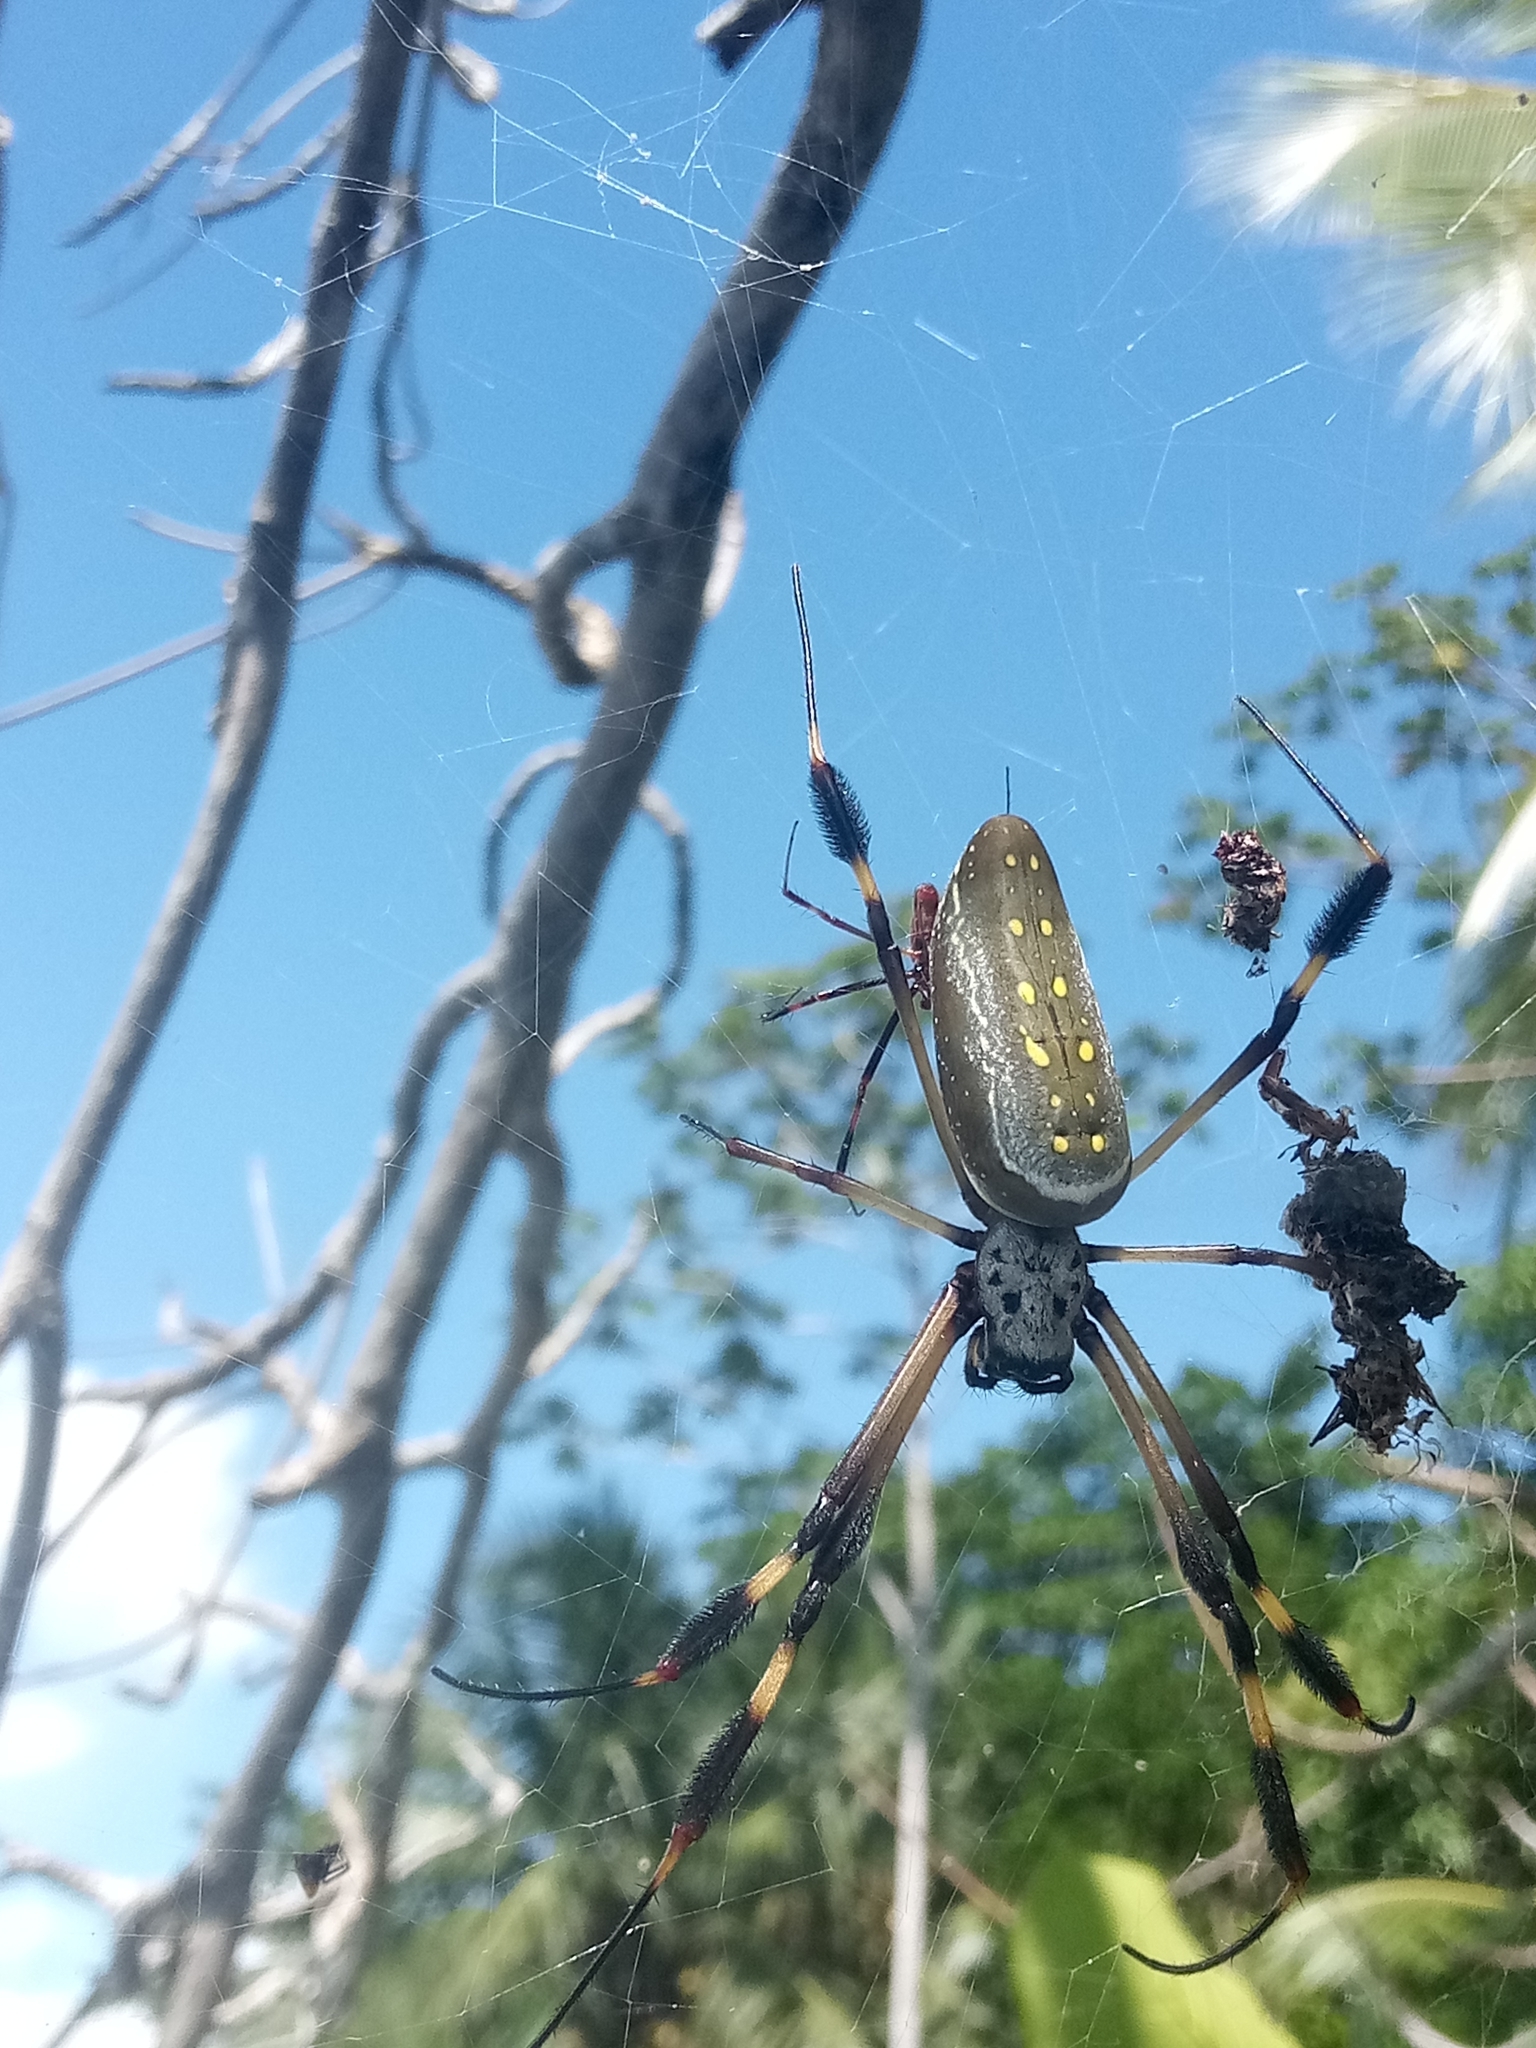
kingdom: Animalia
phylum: Arthropoda
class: Arachnida
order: Araneae
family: Araneidae
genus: Trichonephila
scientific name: Trichonephila clavipes
